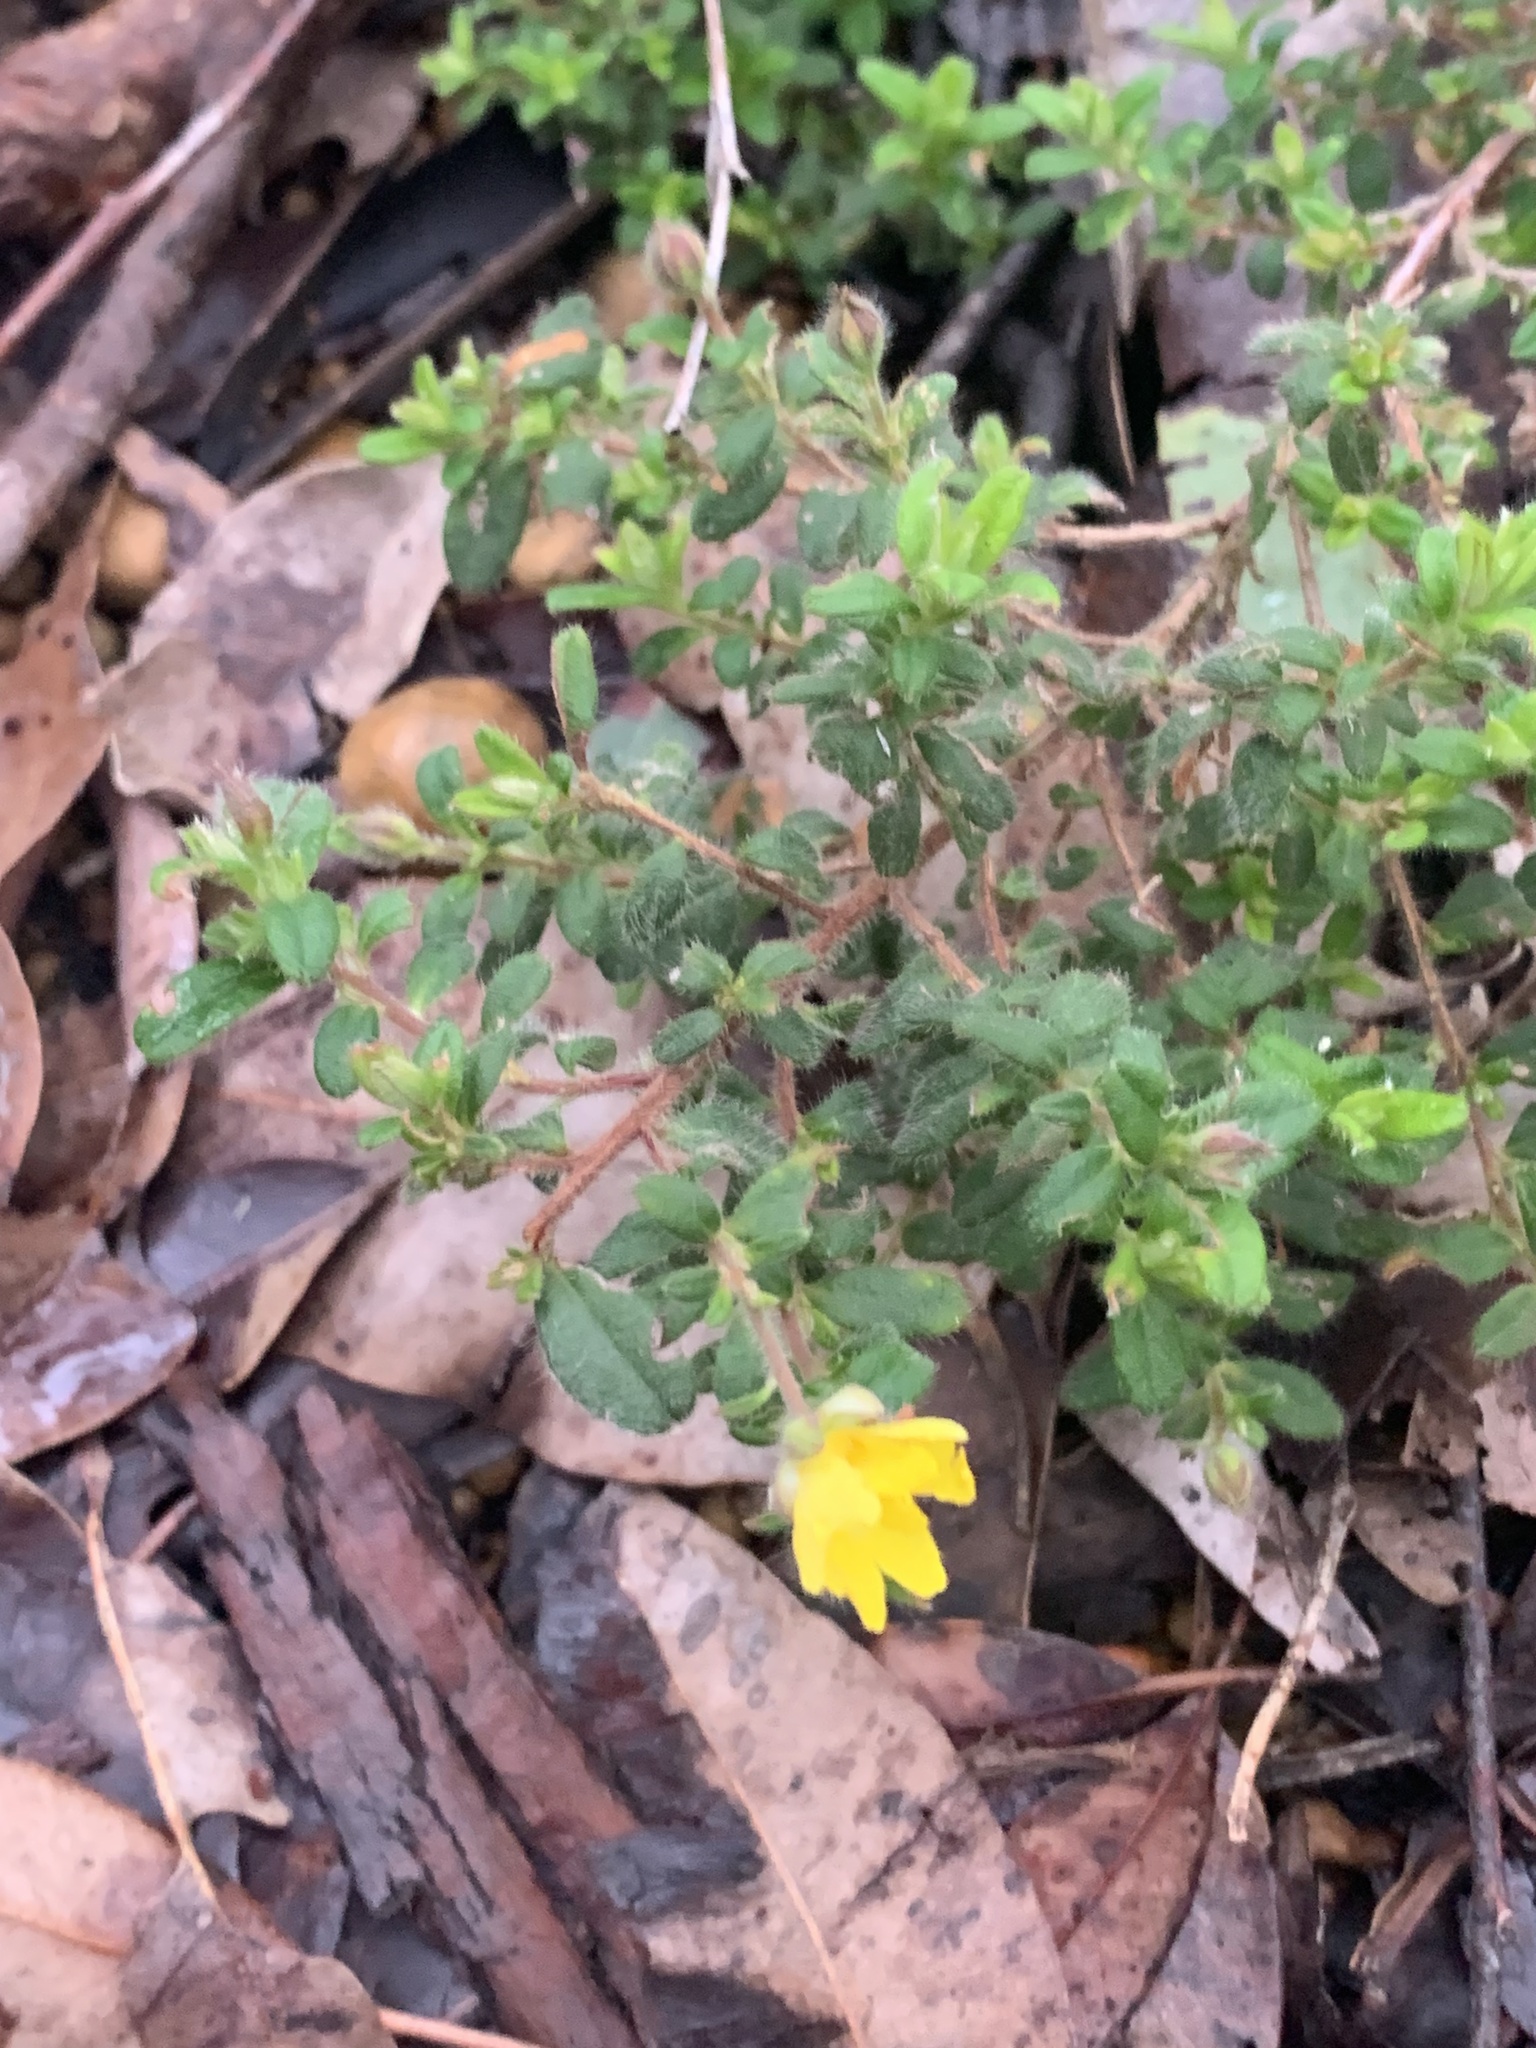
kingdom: Plantae
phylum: Tracheophyta
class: Magnoliopsida
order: Dilleniales
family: Dilleniaceae
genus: Hibbertia
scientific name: Hibbertia silvestris
